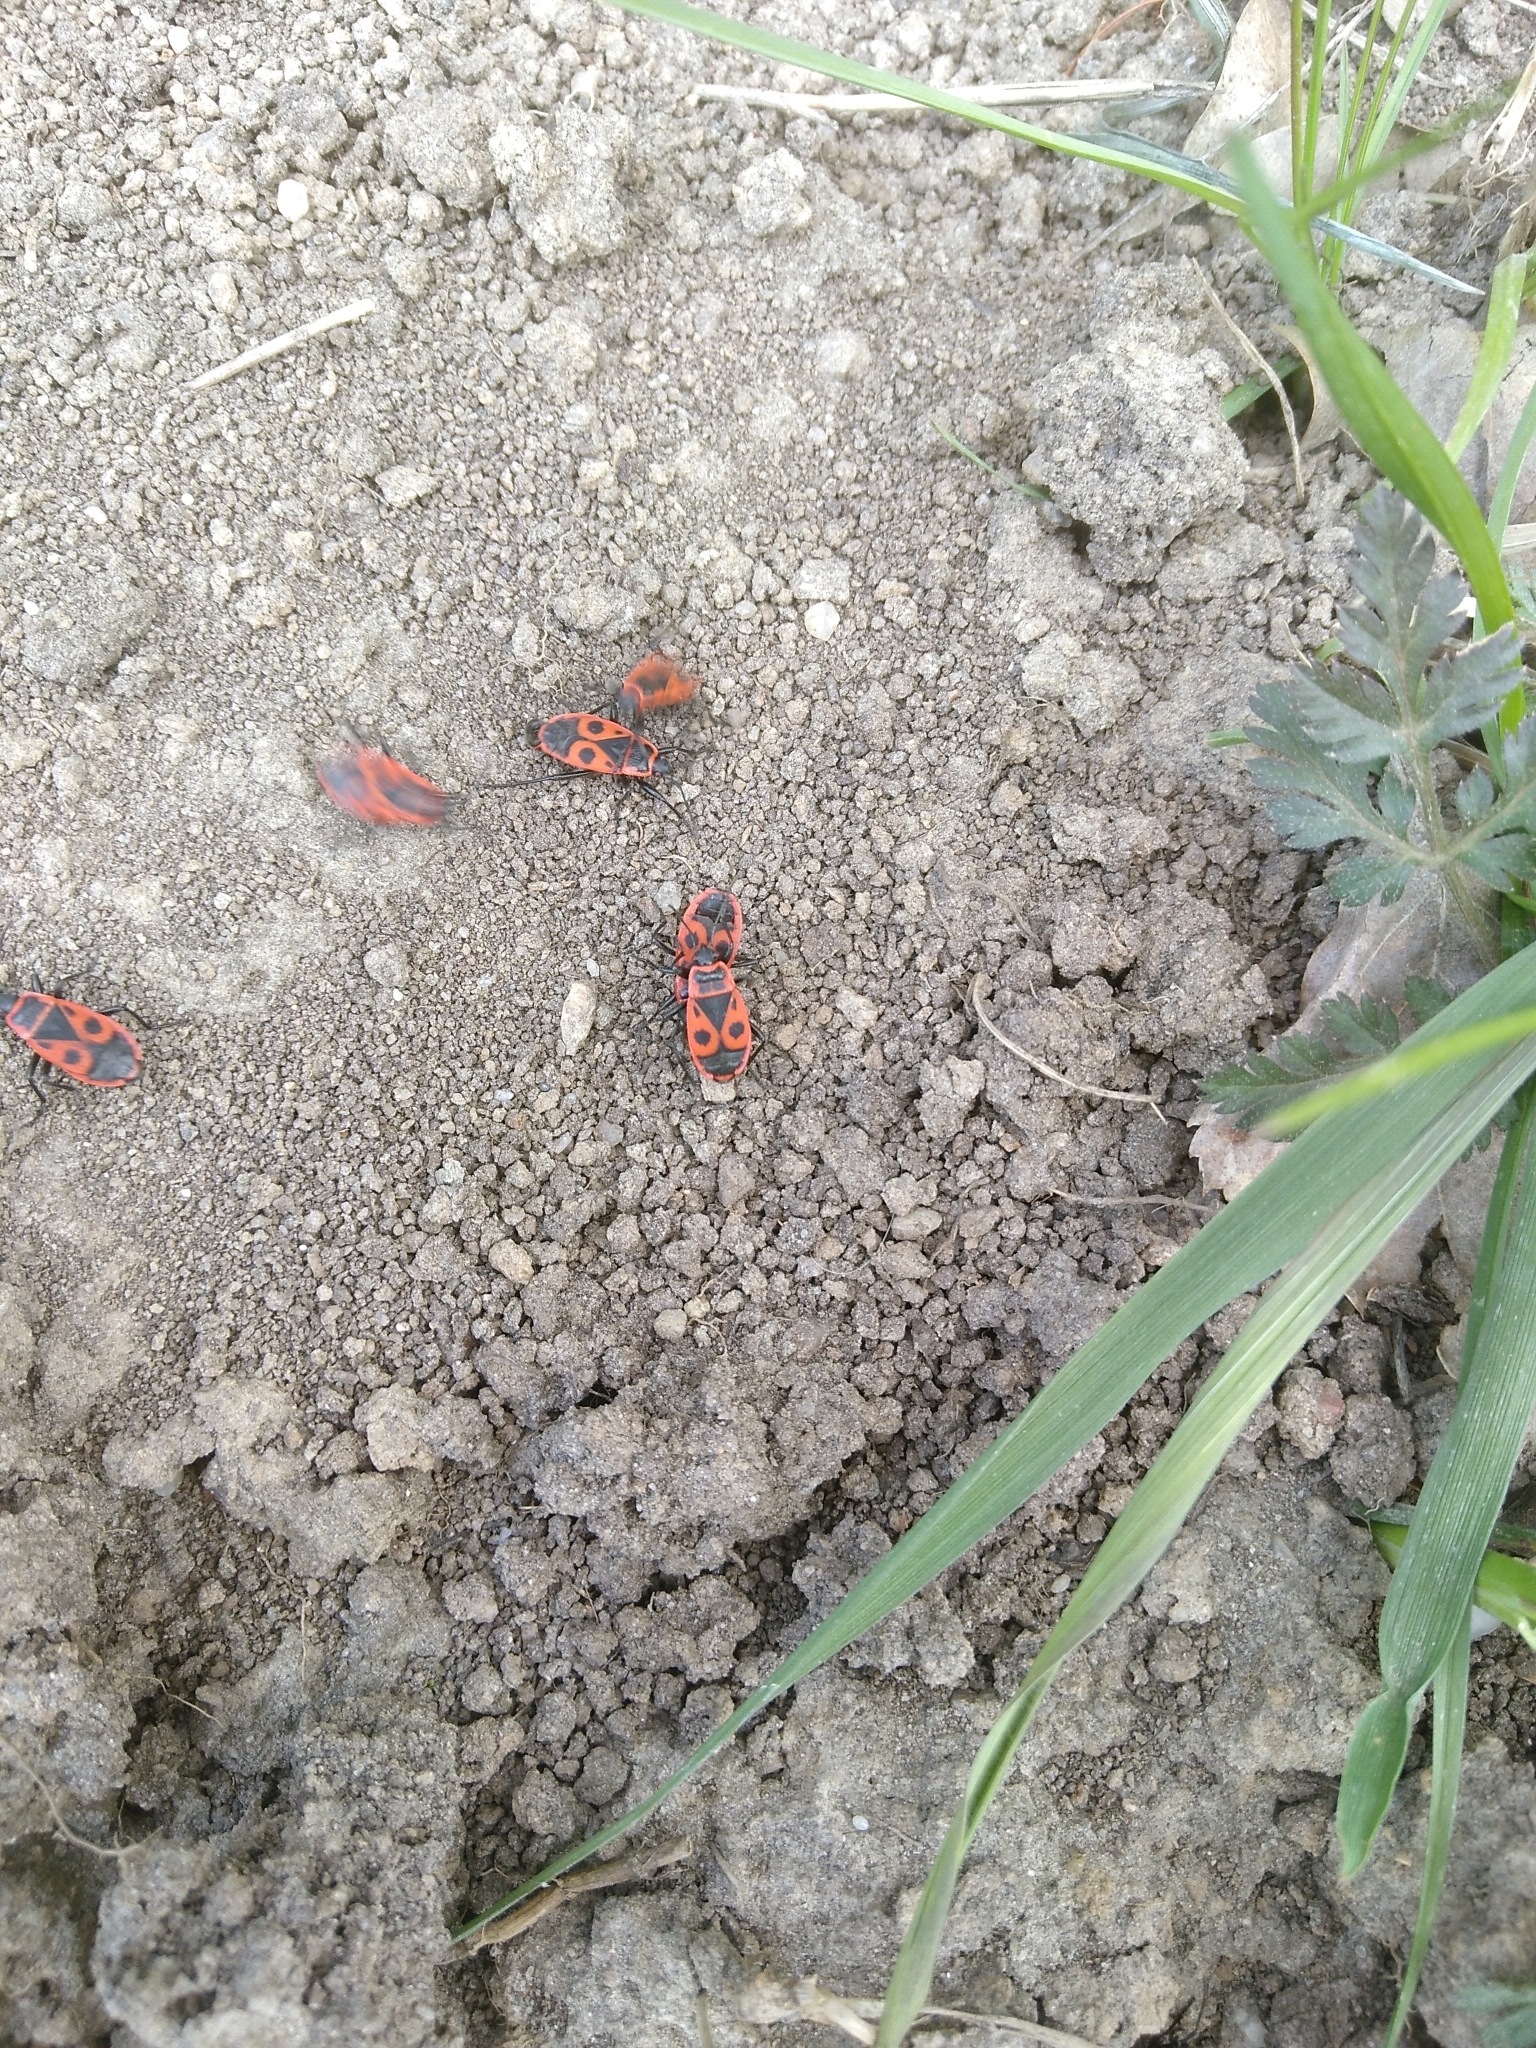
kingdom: Animalia
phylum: Arthropoda
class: Insecta
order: Hemiptera
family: Pyrrhocoridae
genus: Pyrrhocoris
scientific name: Pyrrhocoris apterus
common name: Firebug
